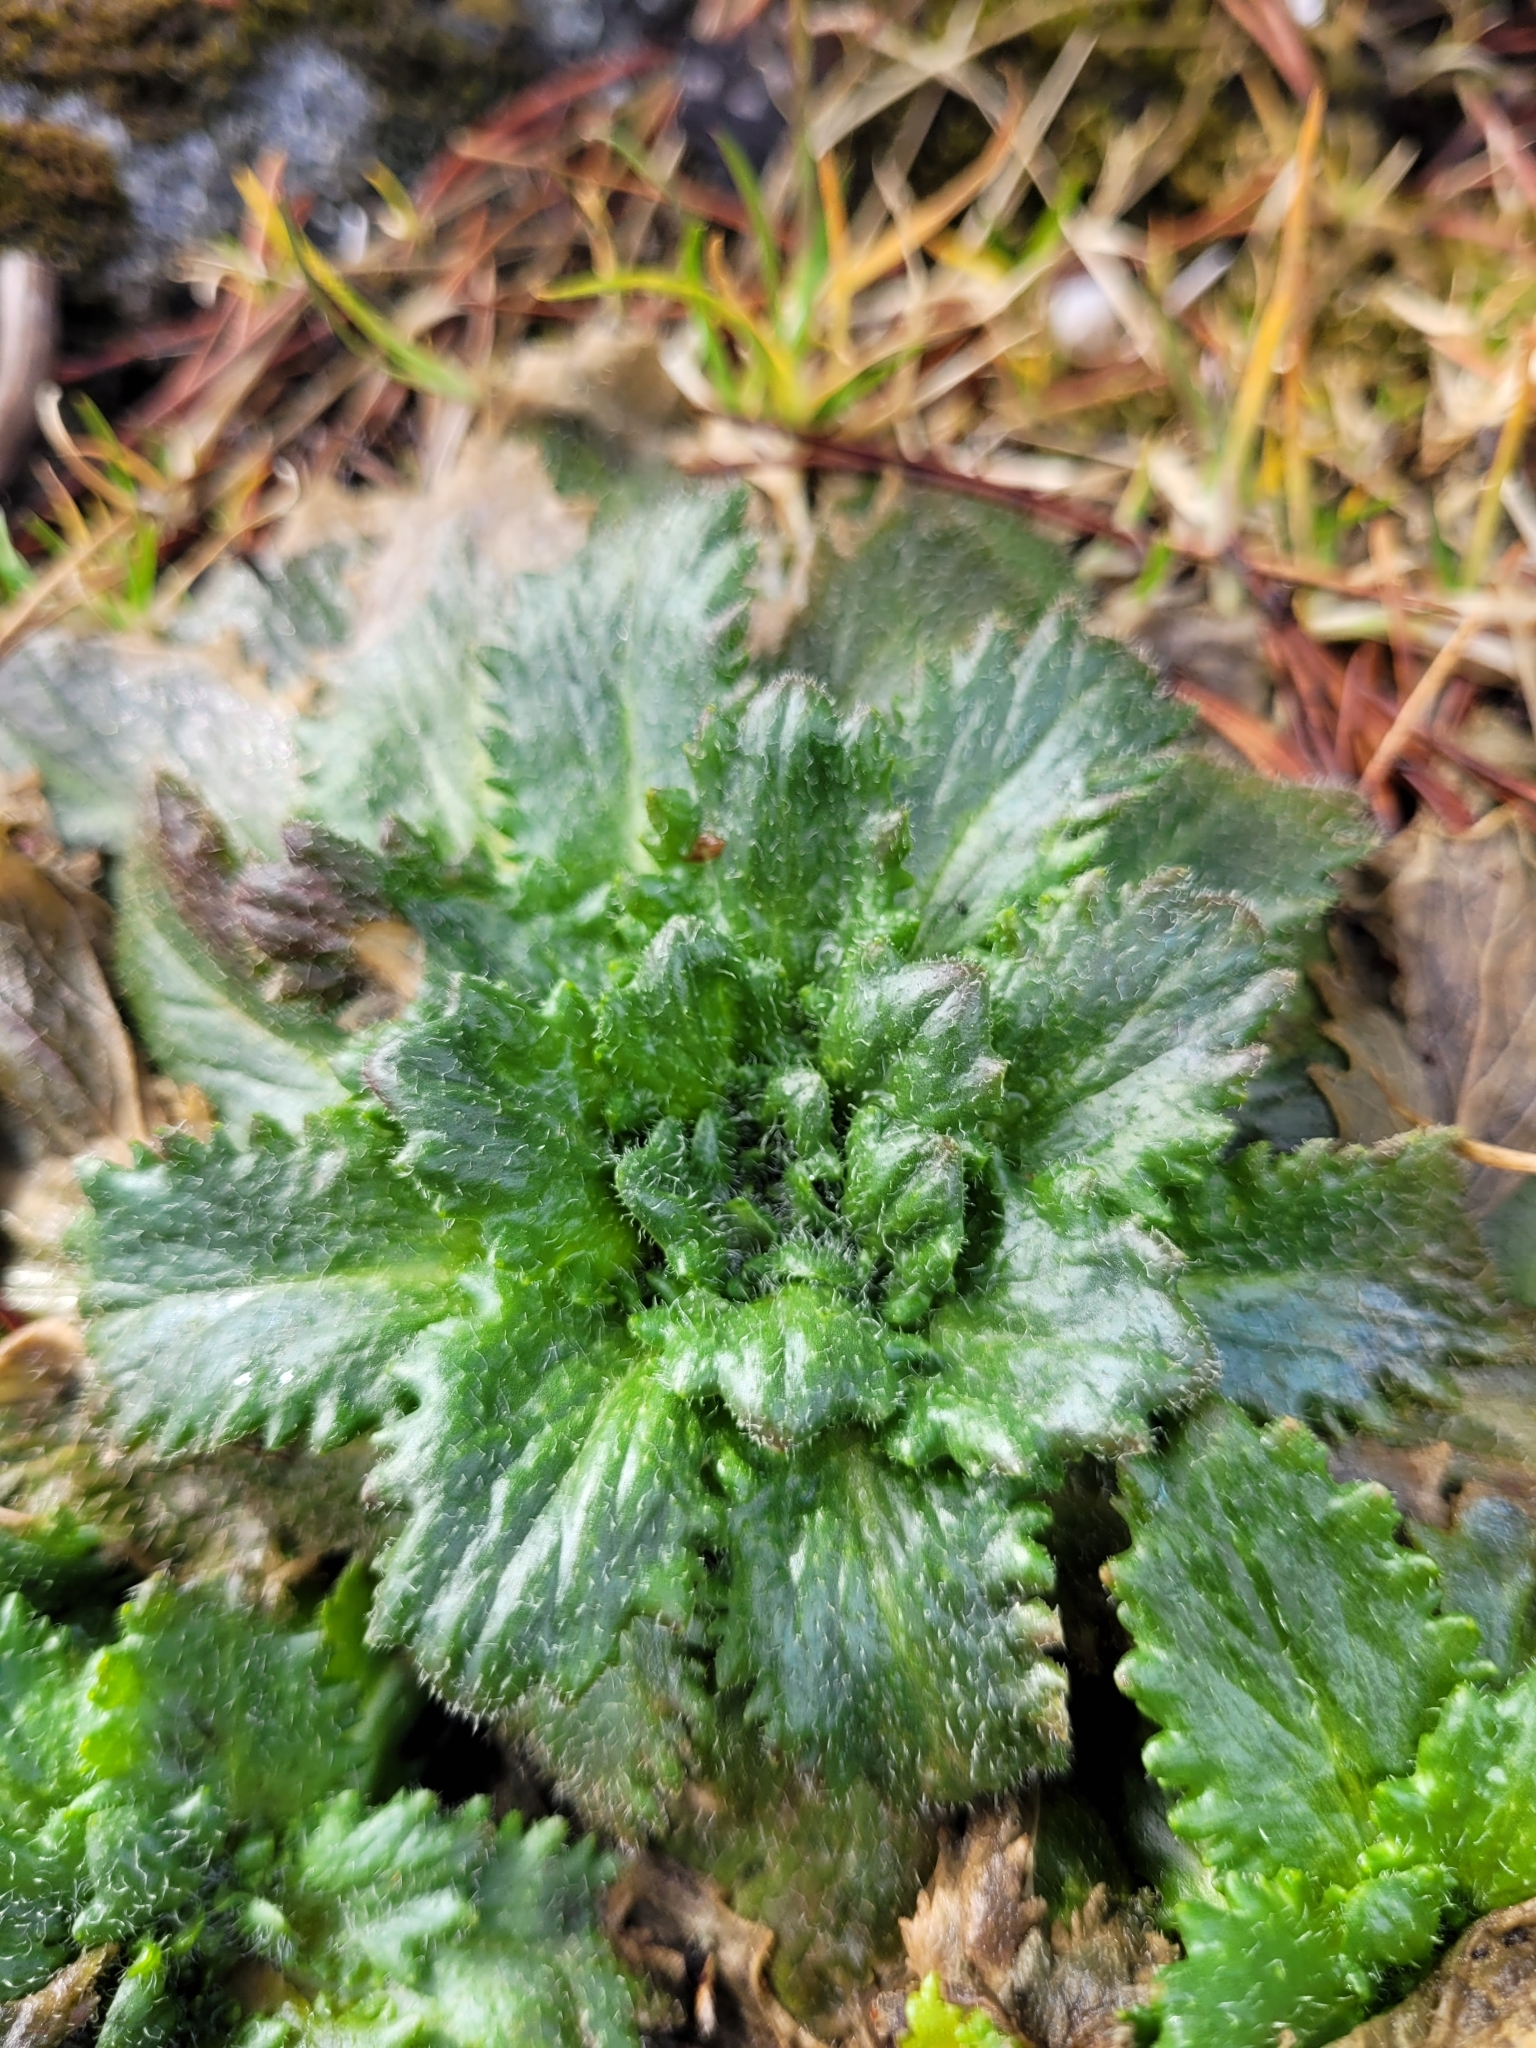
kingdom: Plantae
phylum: Tracheophyta
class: Magnoliopsida
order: Saxifragales
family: Saxifragaceae
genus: Micranthes
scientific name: Micranthes ferruginea
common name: Rusty saxifrage
